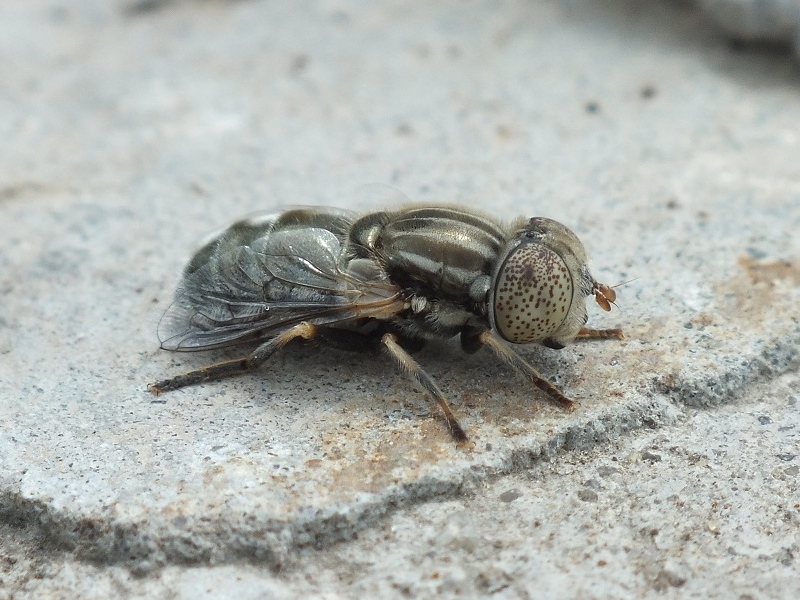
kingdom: Animalia
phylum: Arthropoda
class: Insecta
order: Diptera
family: Syrphidae
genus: Eristalinus
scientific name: Eristalinus aeneus
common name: Syrphid fly
